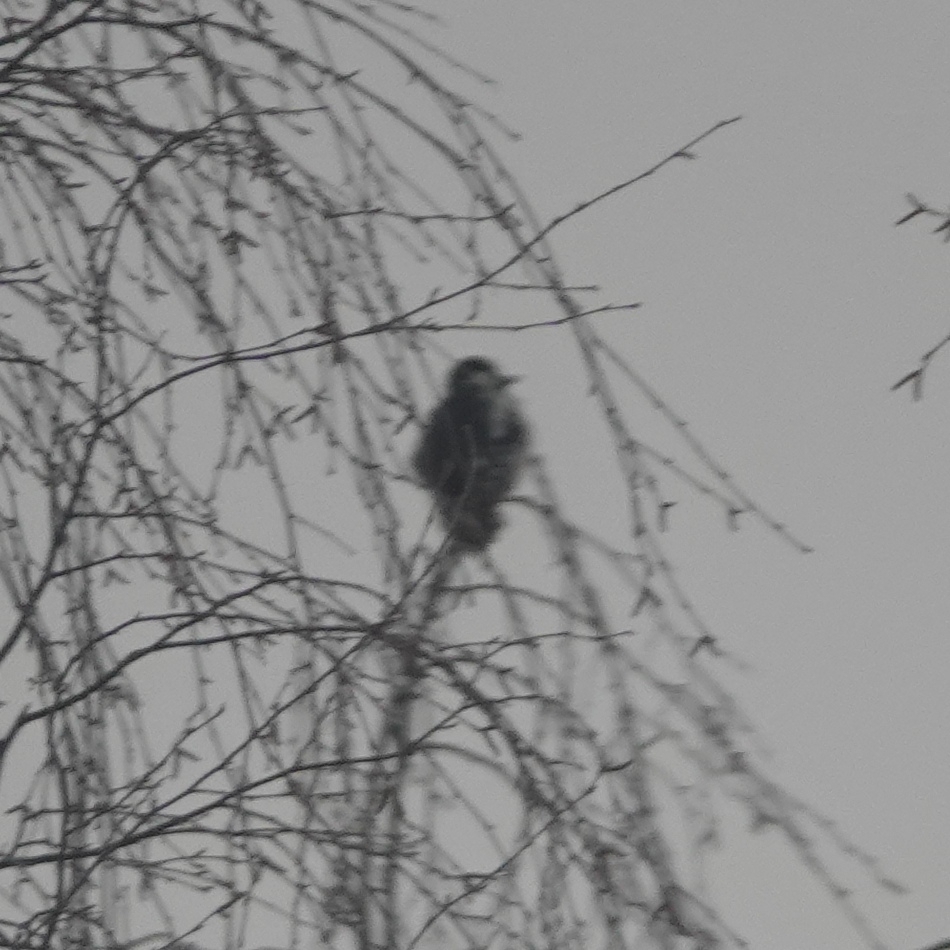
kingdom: Animalia
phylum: Chordata
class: Aves
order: Piciformes
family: Picidae
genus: Dendrocopos
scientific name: Dendrocopos major
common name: Great spotted woodpecker
